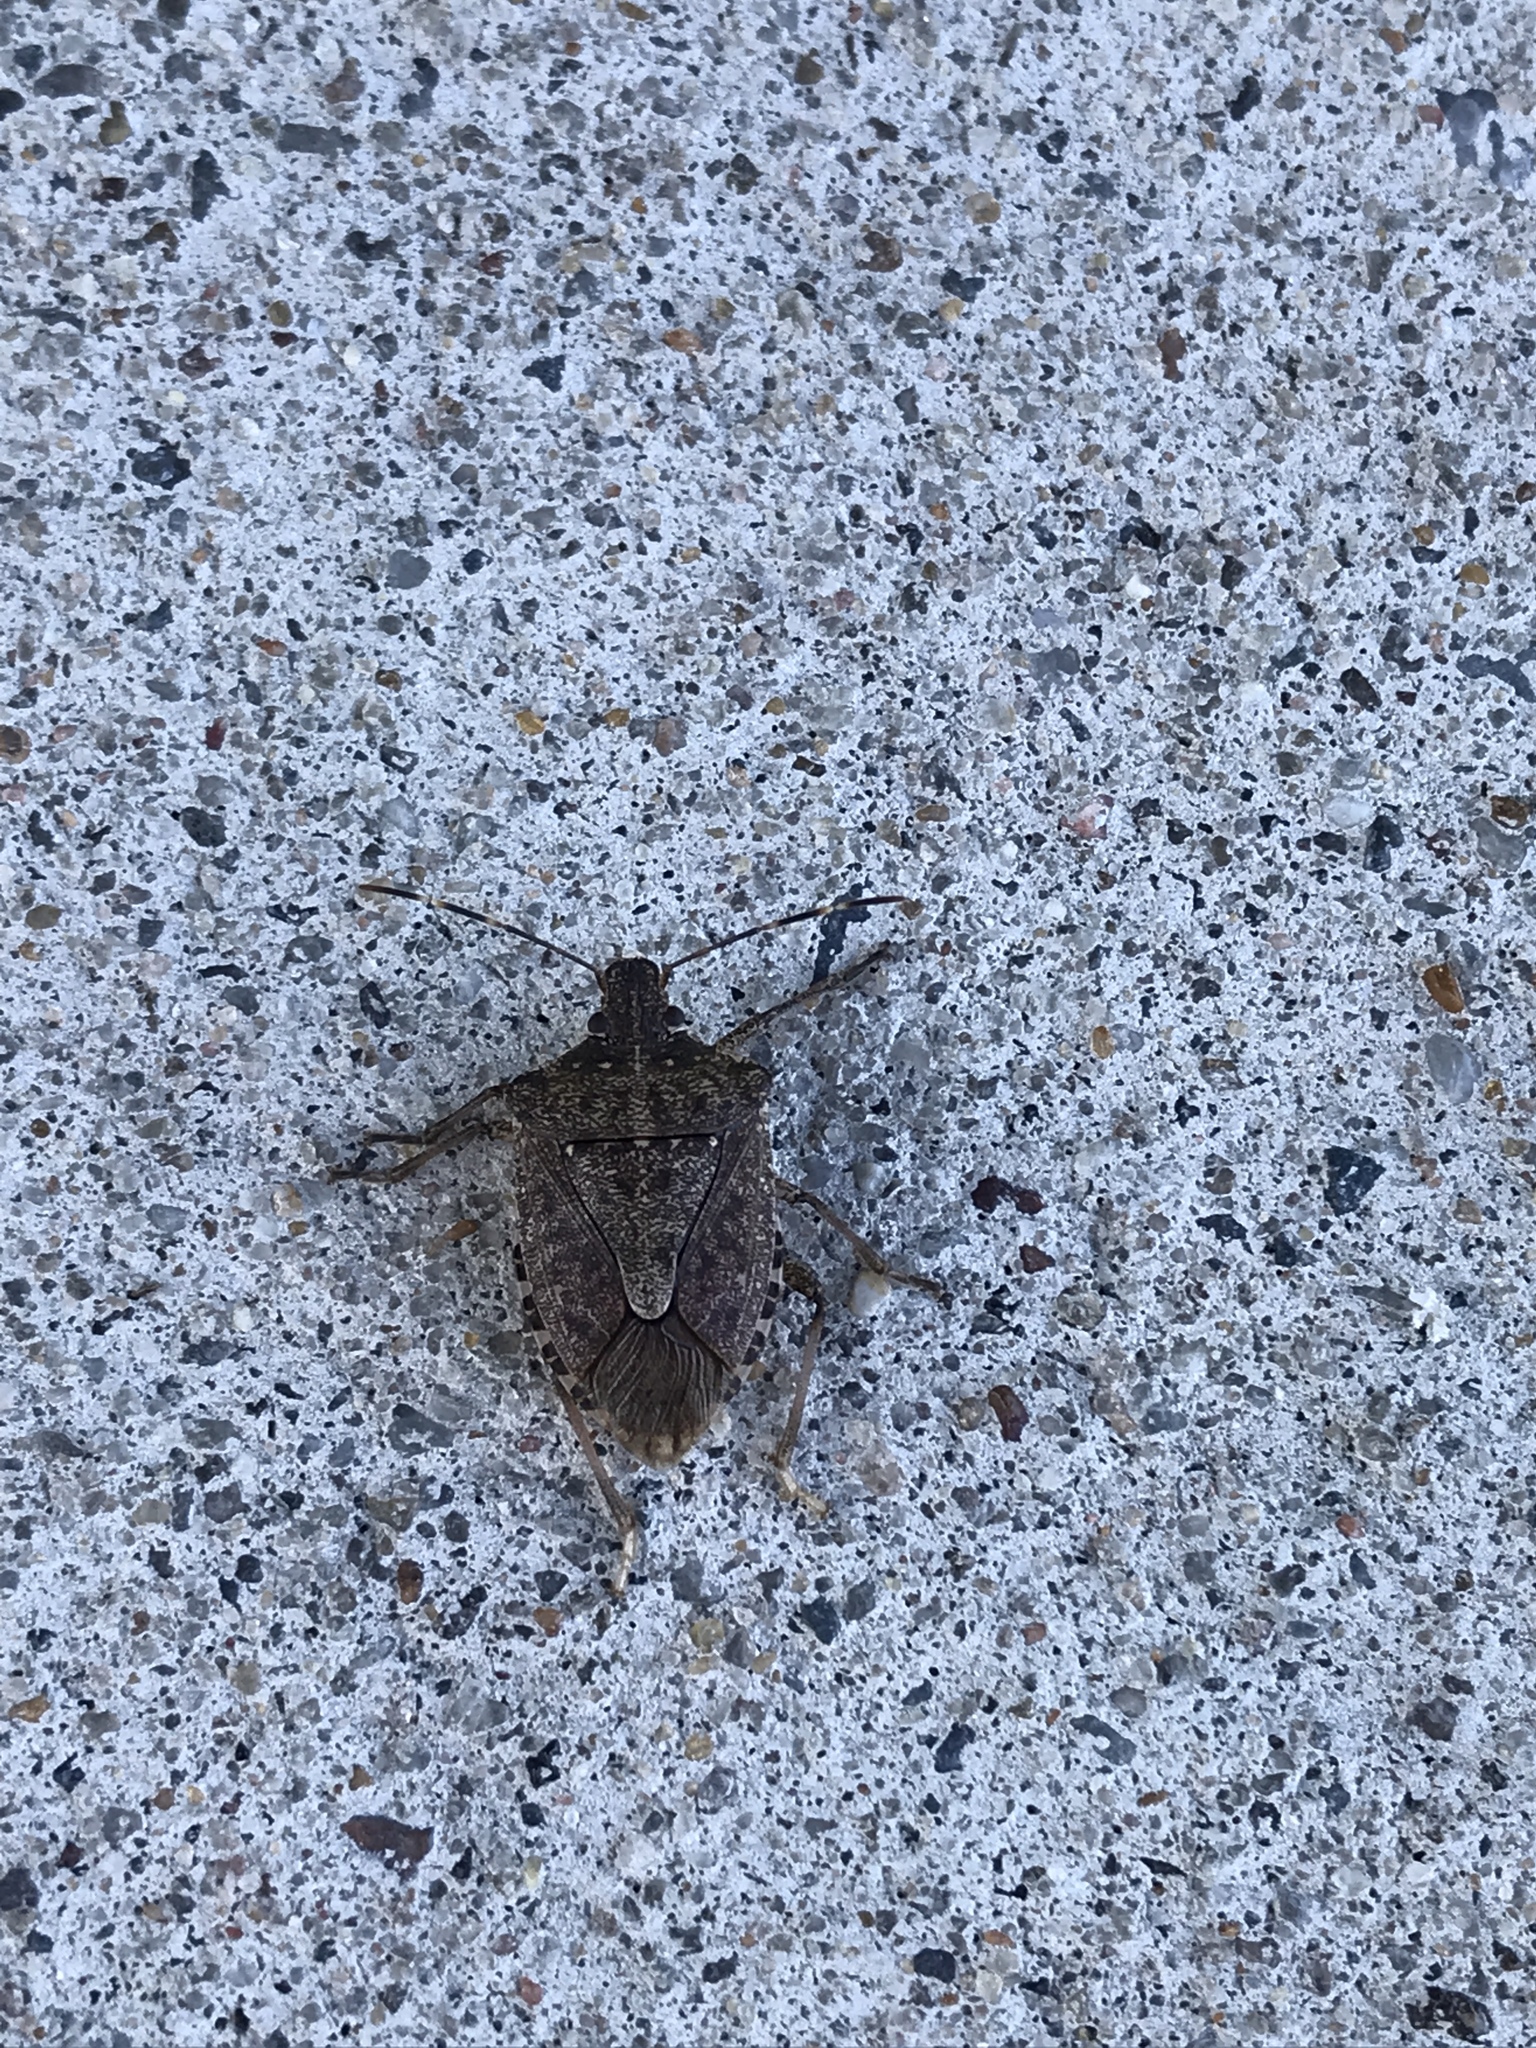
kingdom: Animalia
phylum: Arthropoda
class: Insecta
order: Hemiptera
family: Pentatomidae
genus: Halyomorpha
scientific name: Halyomorpha halys
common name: Brown marmorated stink bug
